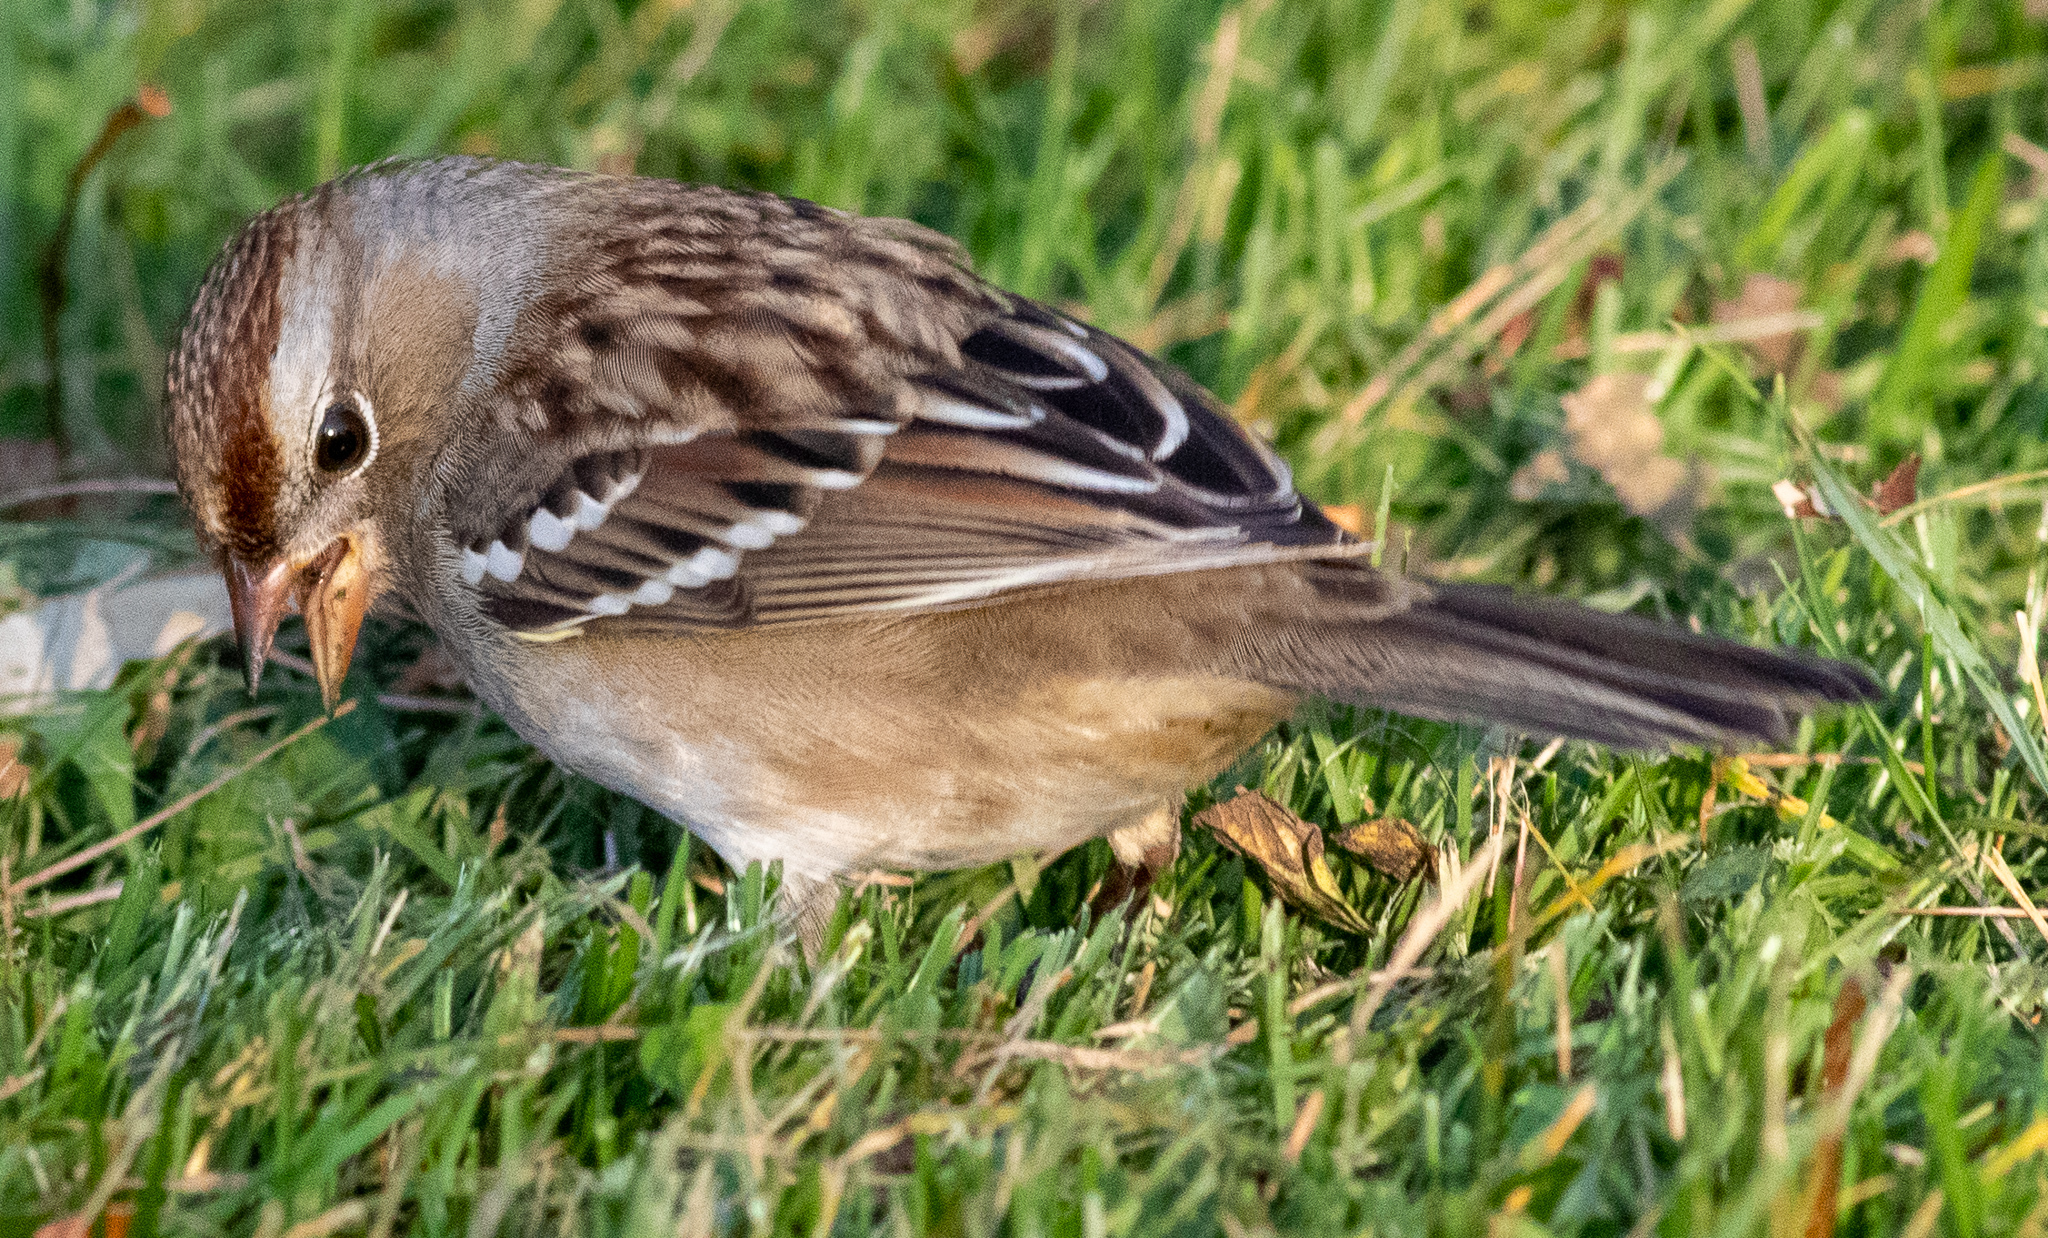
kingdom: Animalia
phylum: Chordata
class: Aves
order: Passeriformes
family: Passerellidae
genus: Zonotrichia
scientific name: Zonotrichia leucophrys
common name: White-crowned sparrow
